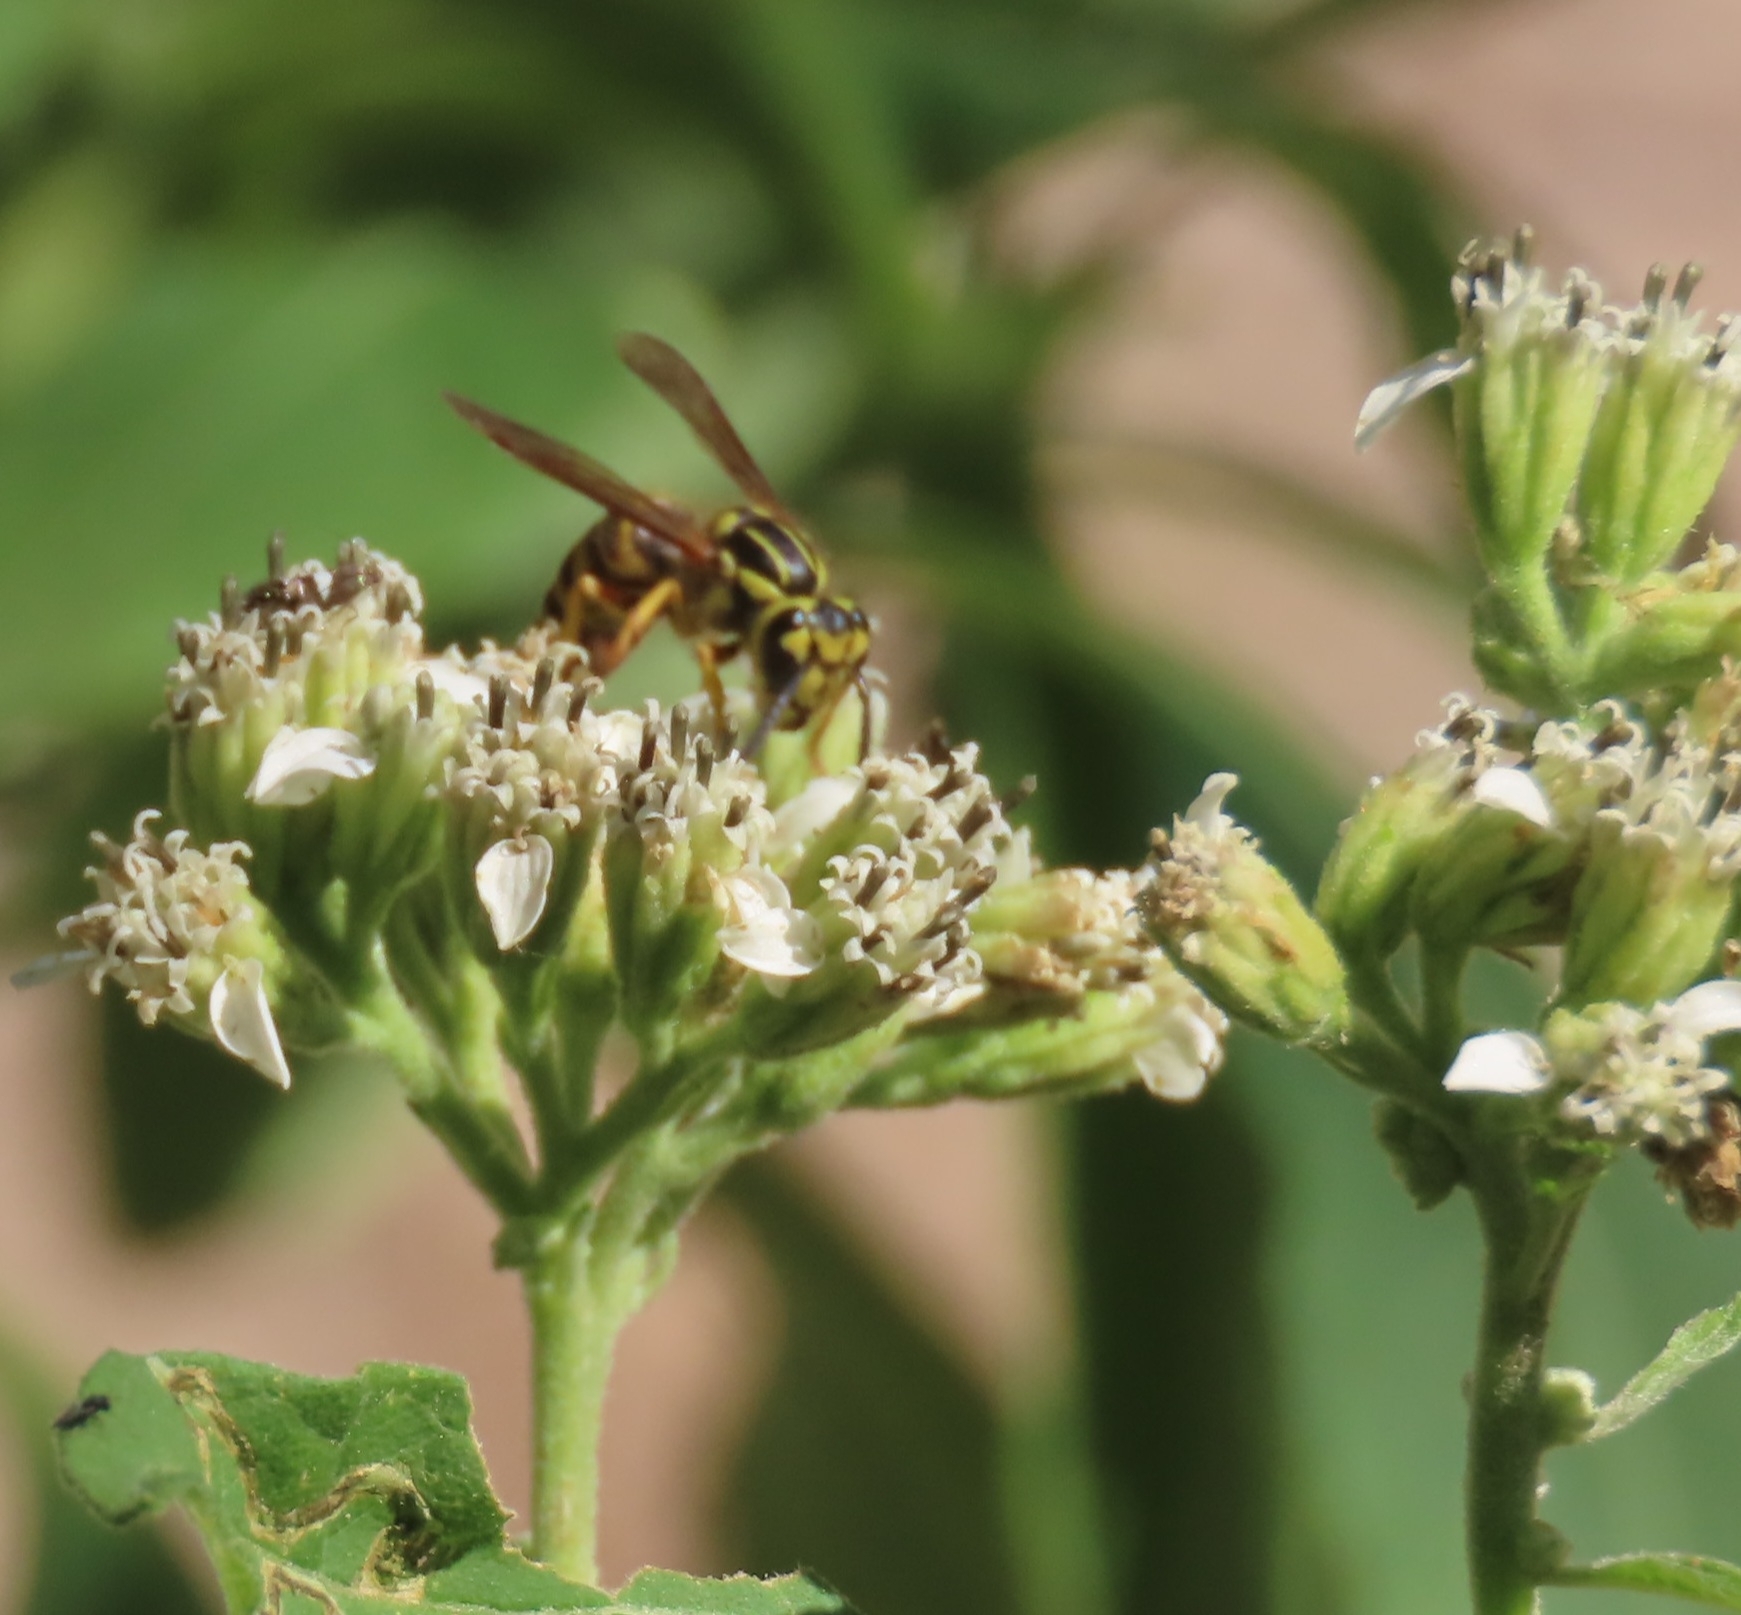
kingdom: Animalia
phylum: Arthropoda
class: Insecta
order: Hymenoptera
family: Vespidae
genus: Vespula
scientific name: Vespula squamosa
